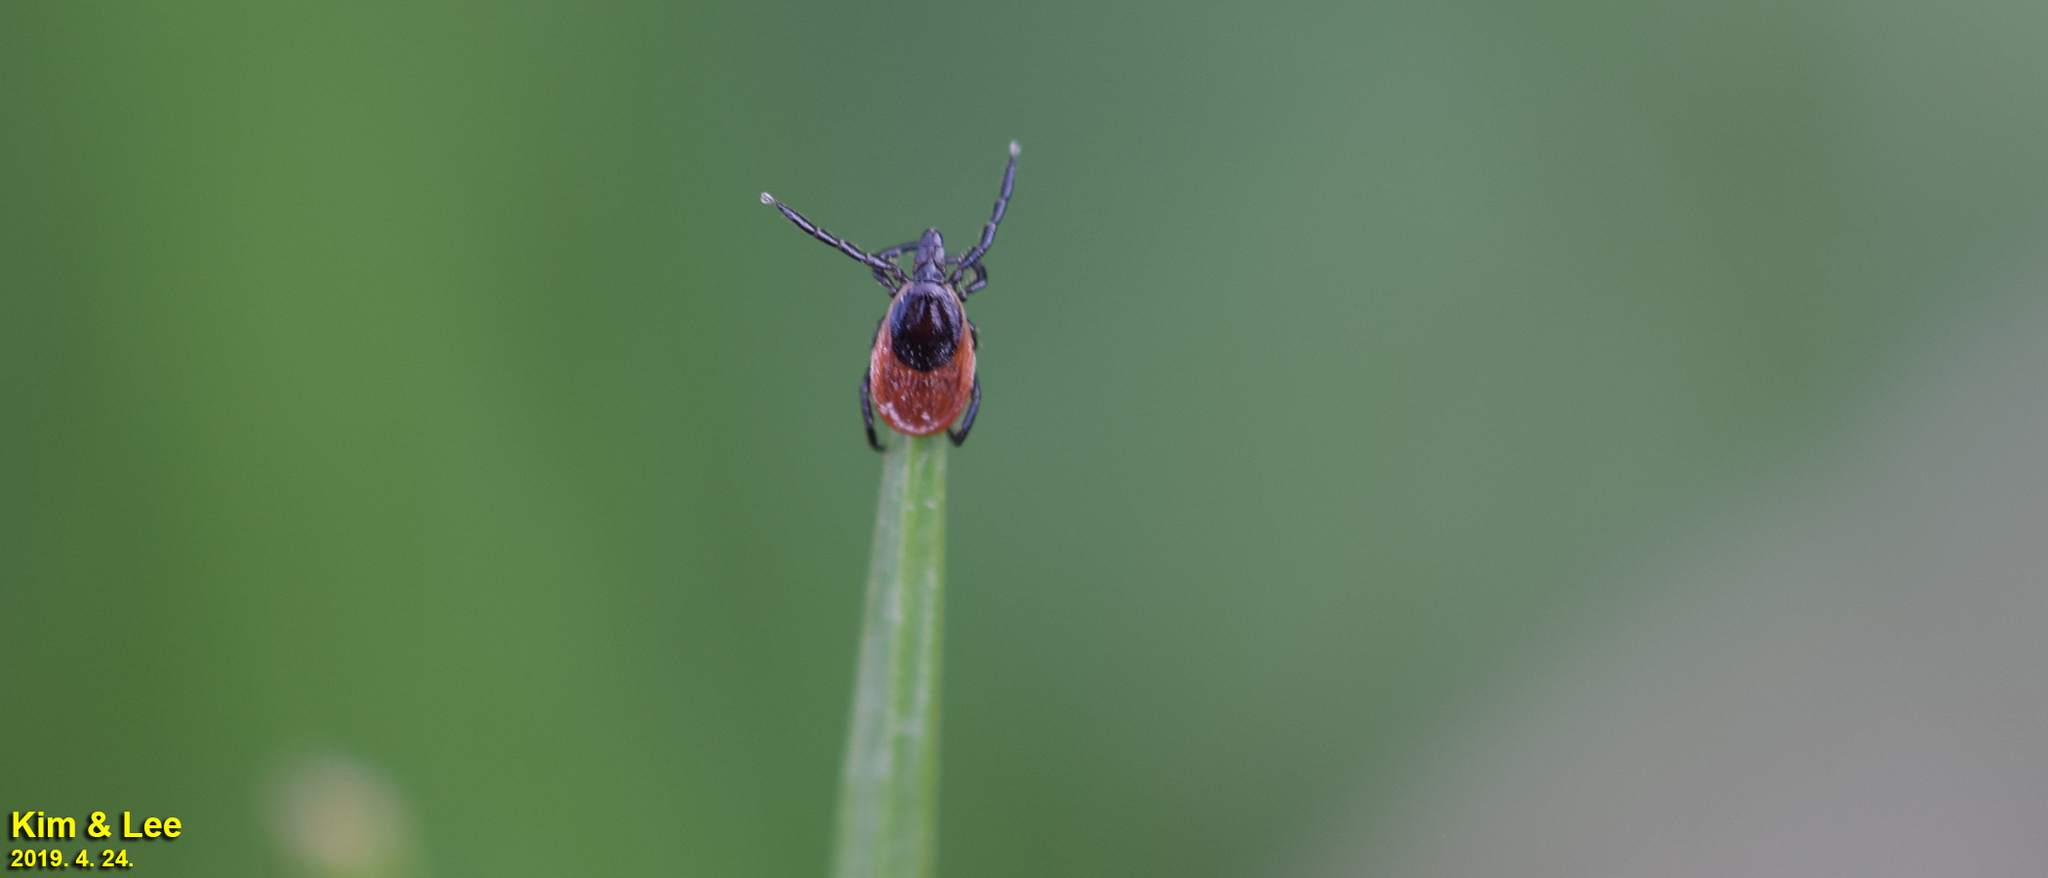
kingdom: Animalia
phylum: Arthropoda
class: Arachnida
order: Ixodida
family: Ixodidae
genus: Ixodes
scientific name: Ixodes nipponensis
